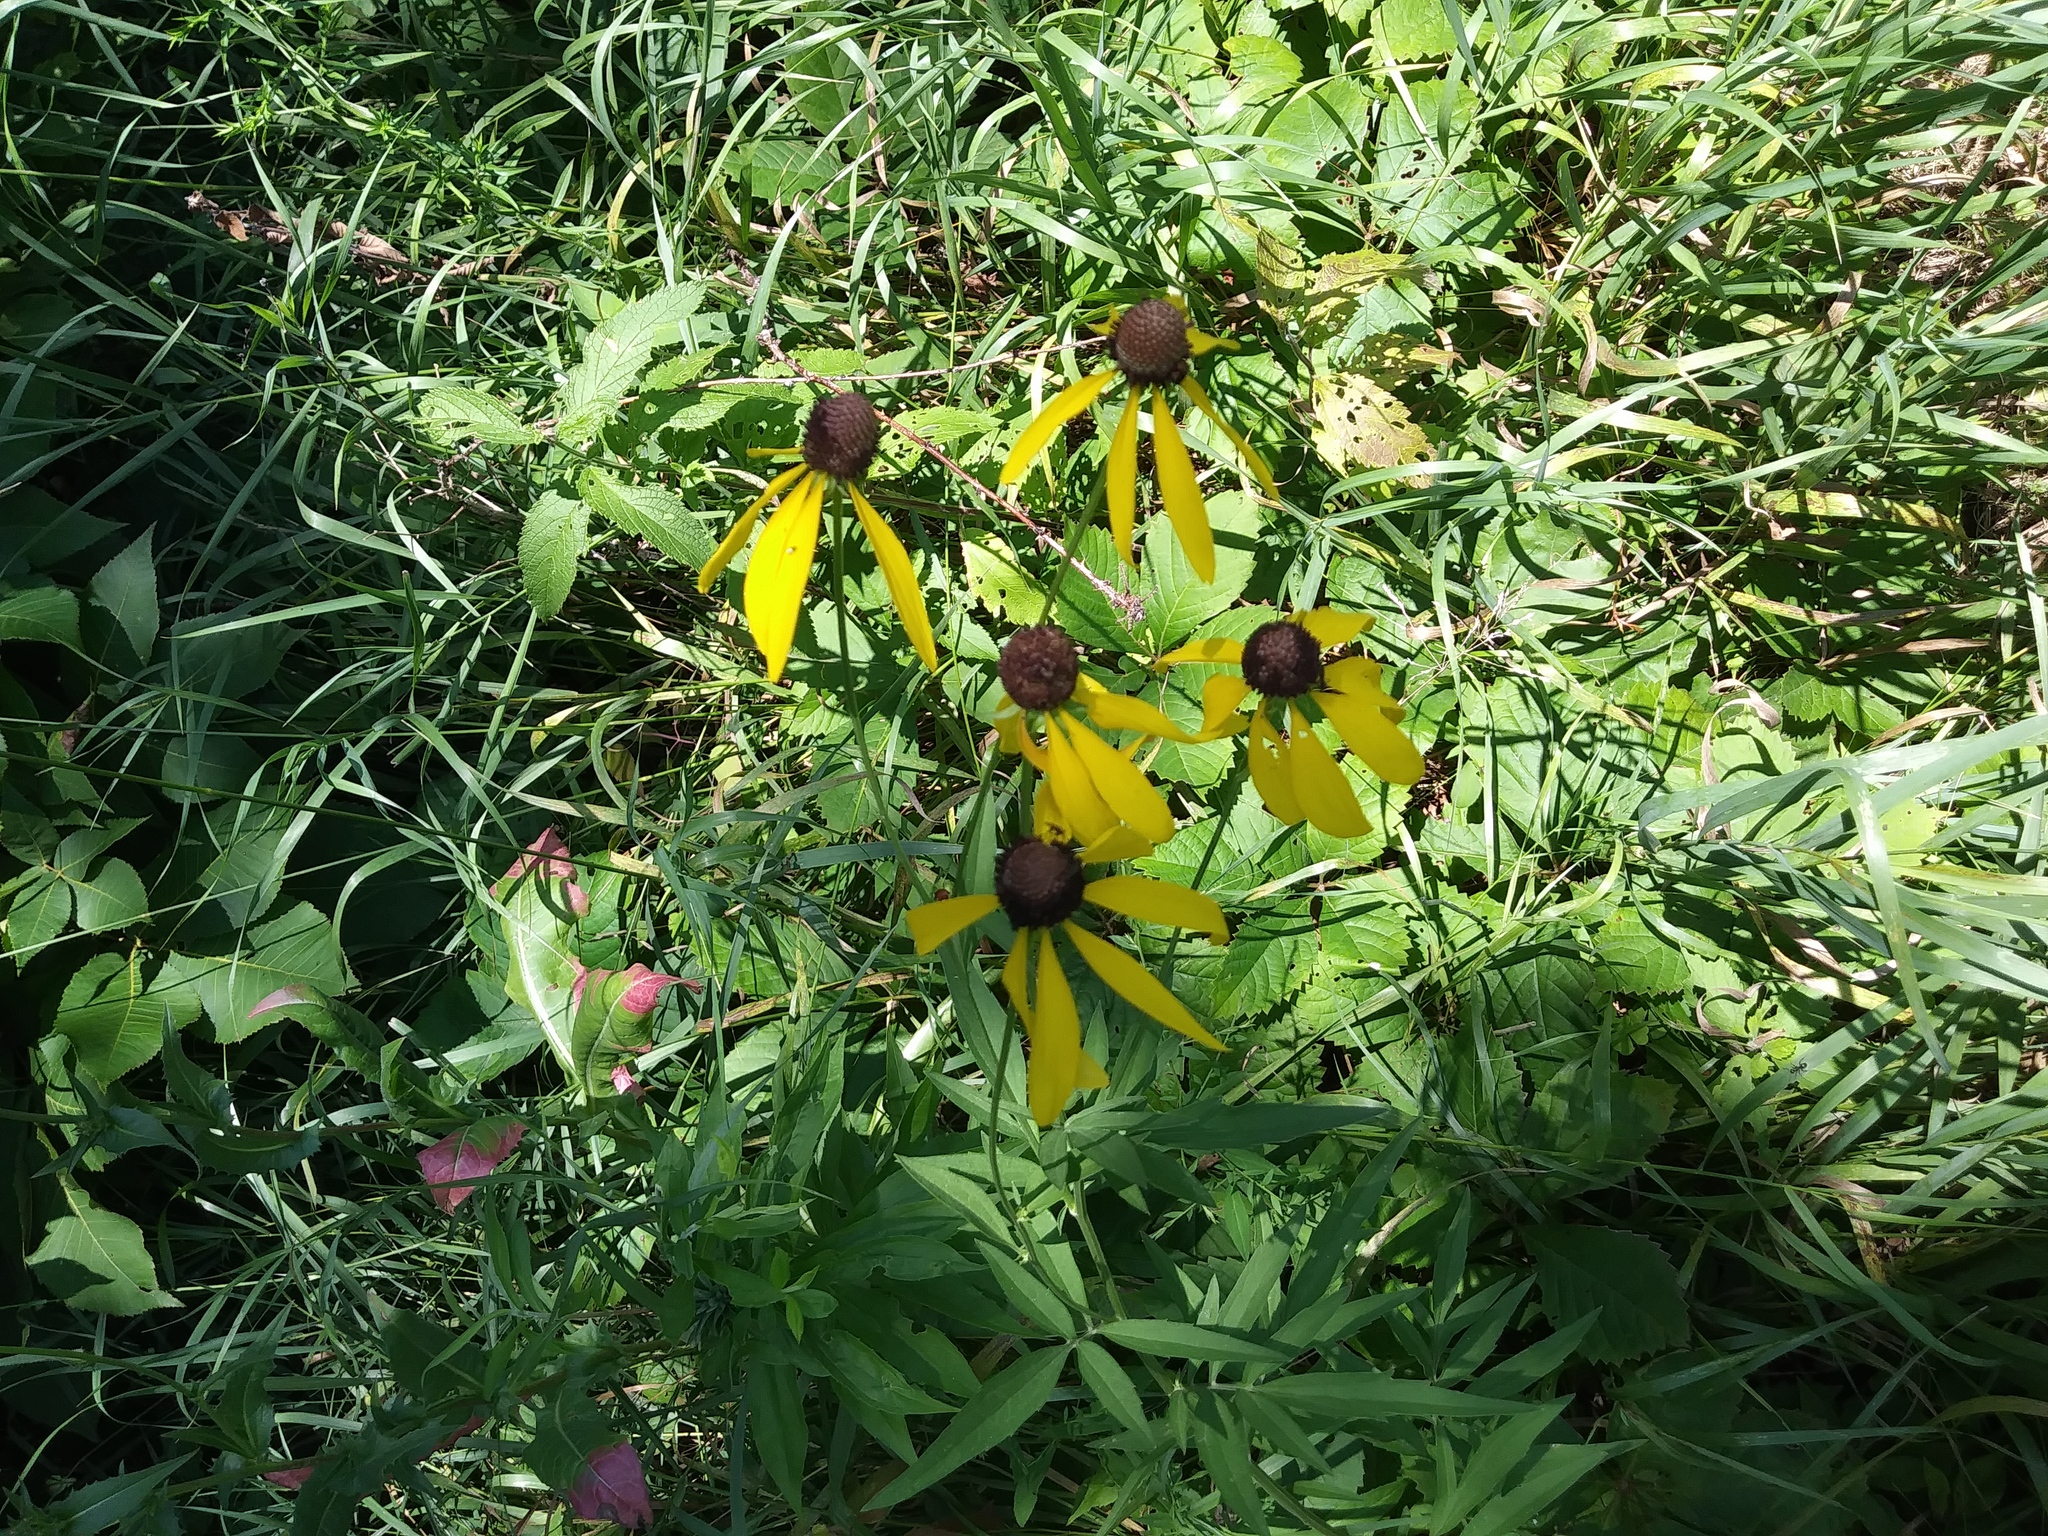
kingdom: Plantae
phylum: Tracheophyta
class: Magnoliopsida
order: Asterales
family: Asteraceae
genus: Ratibida
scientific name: Ratibida pinnata
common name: Drooping prairie-coneflower
